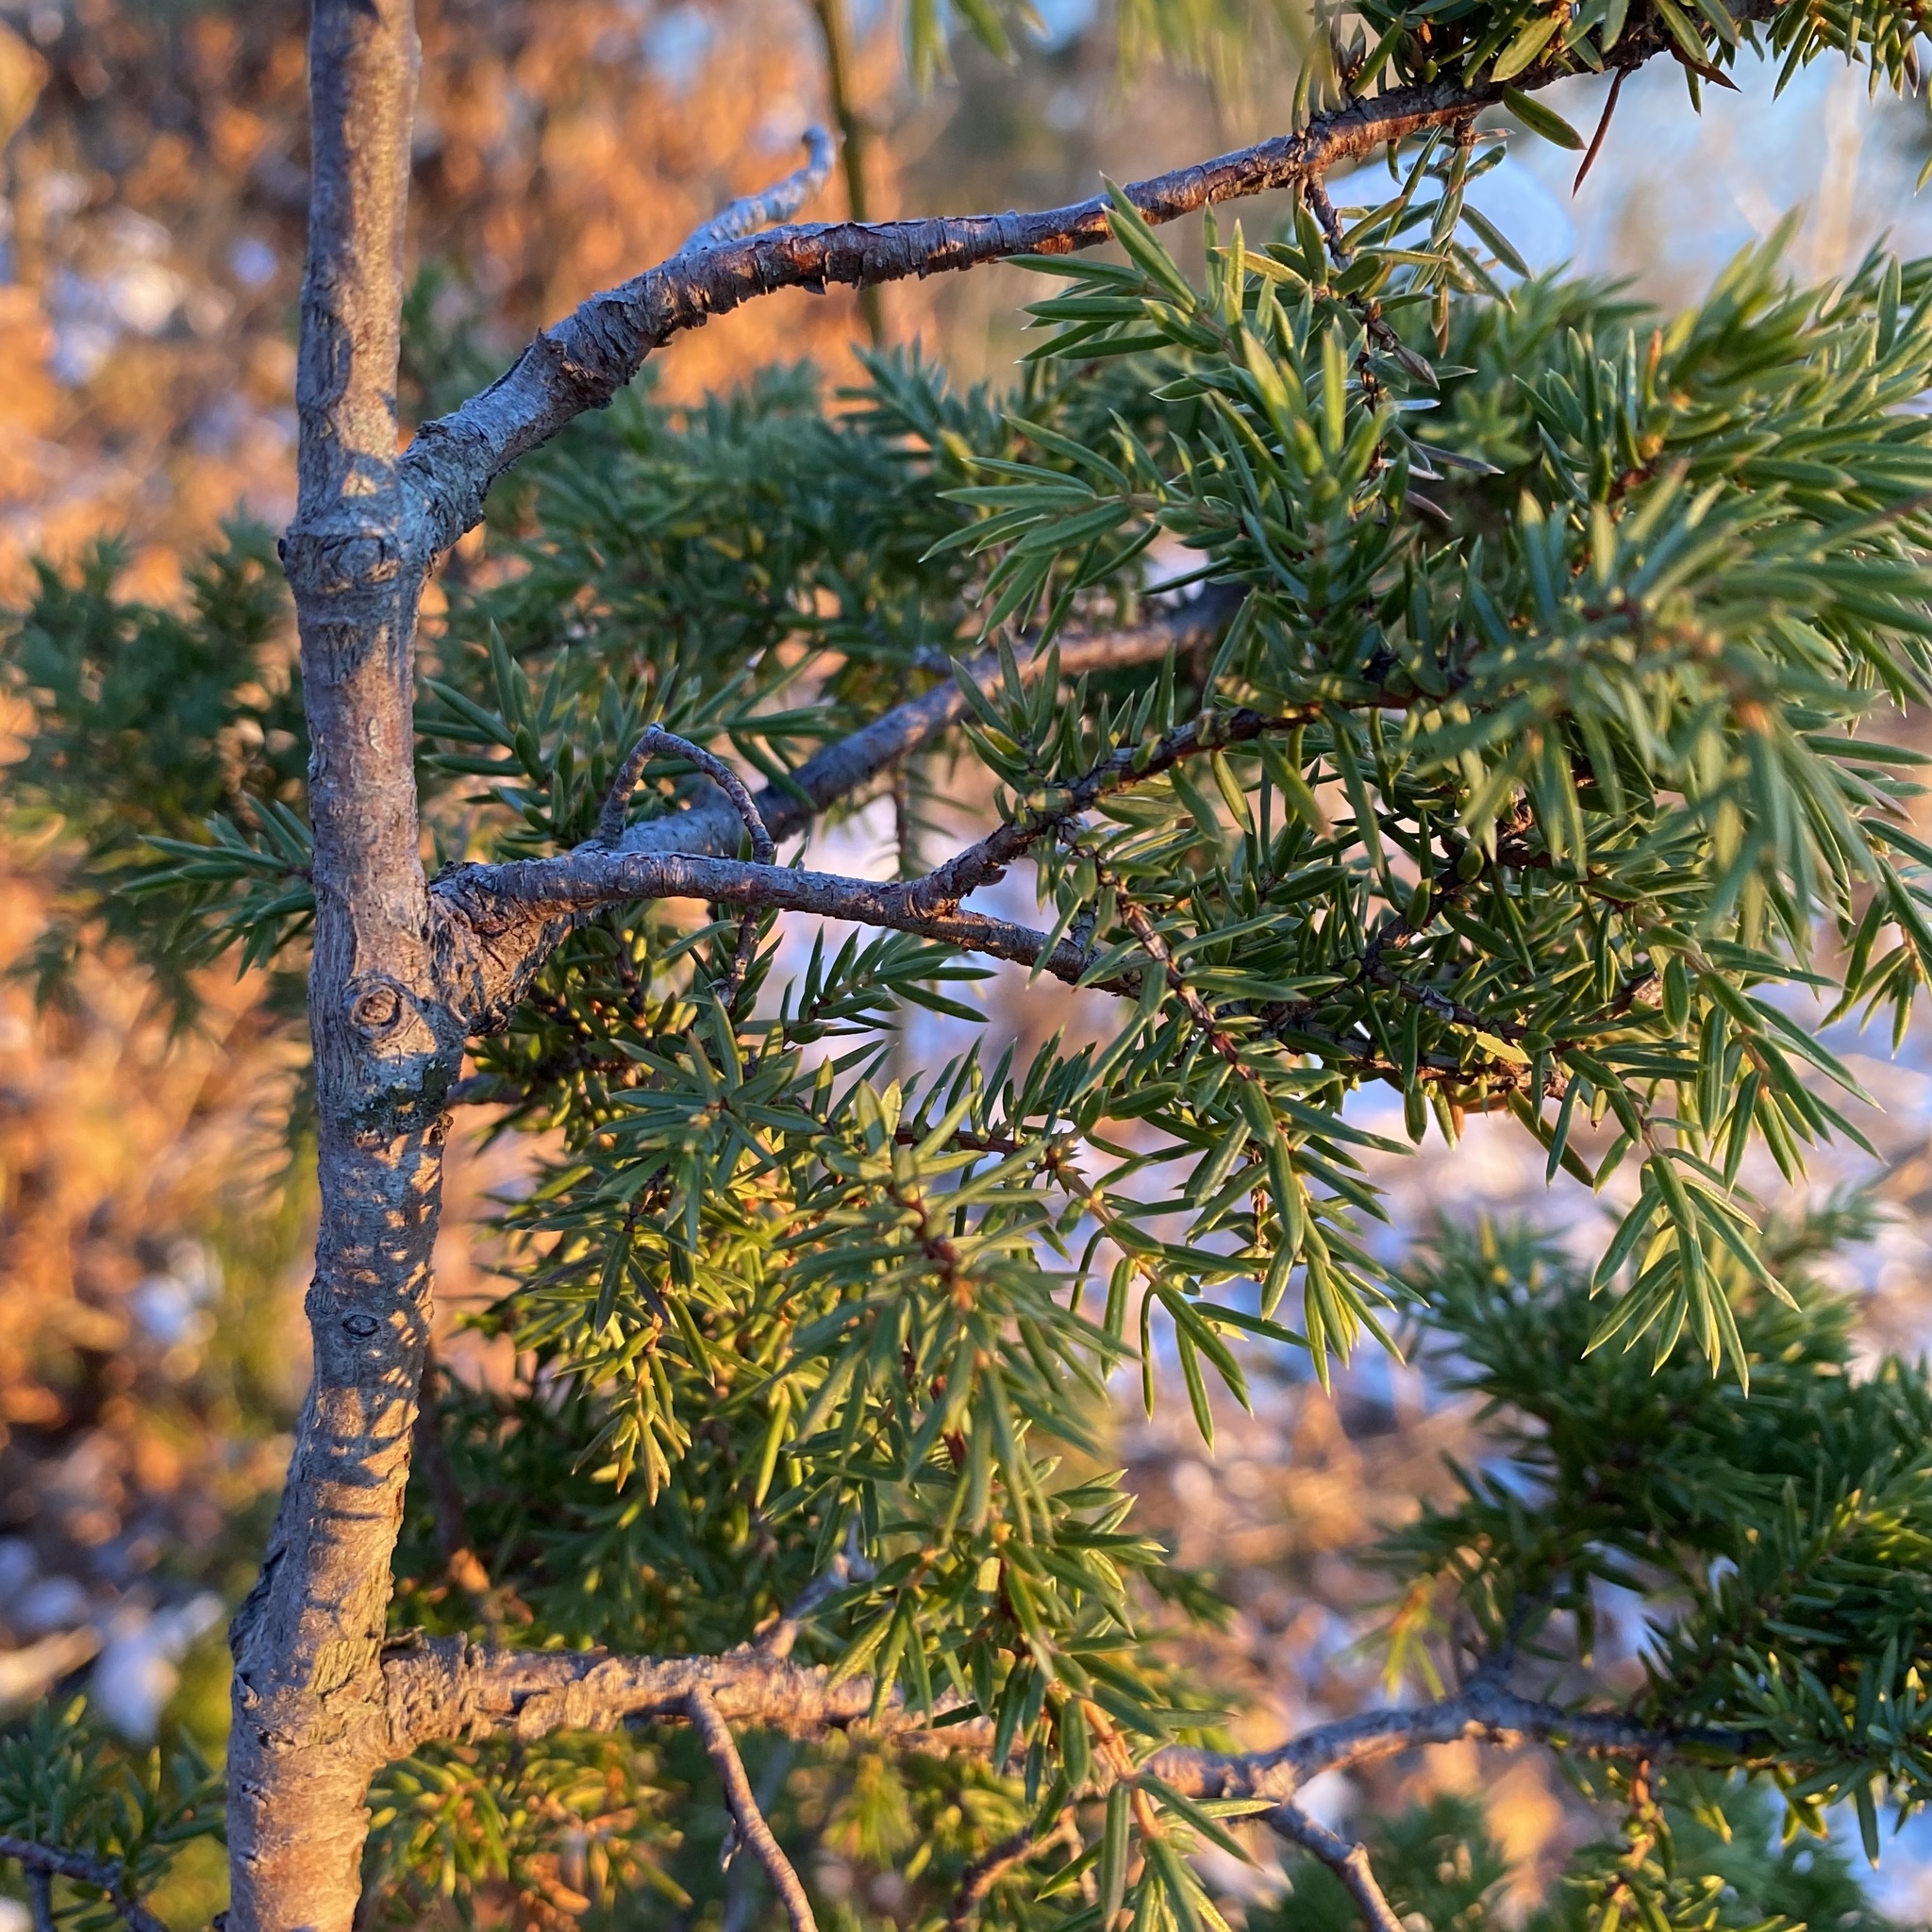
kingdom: Plantae
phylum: Tracheophyta
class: Pinopsida
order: Pinales
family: Cupressaceae
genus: Juniperus
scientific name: Juniperus communis
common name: Common juniper
